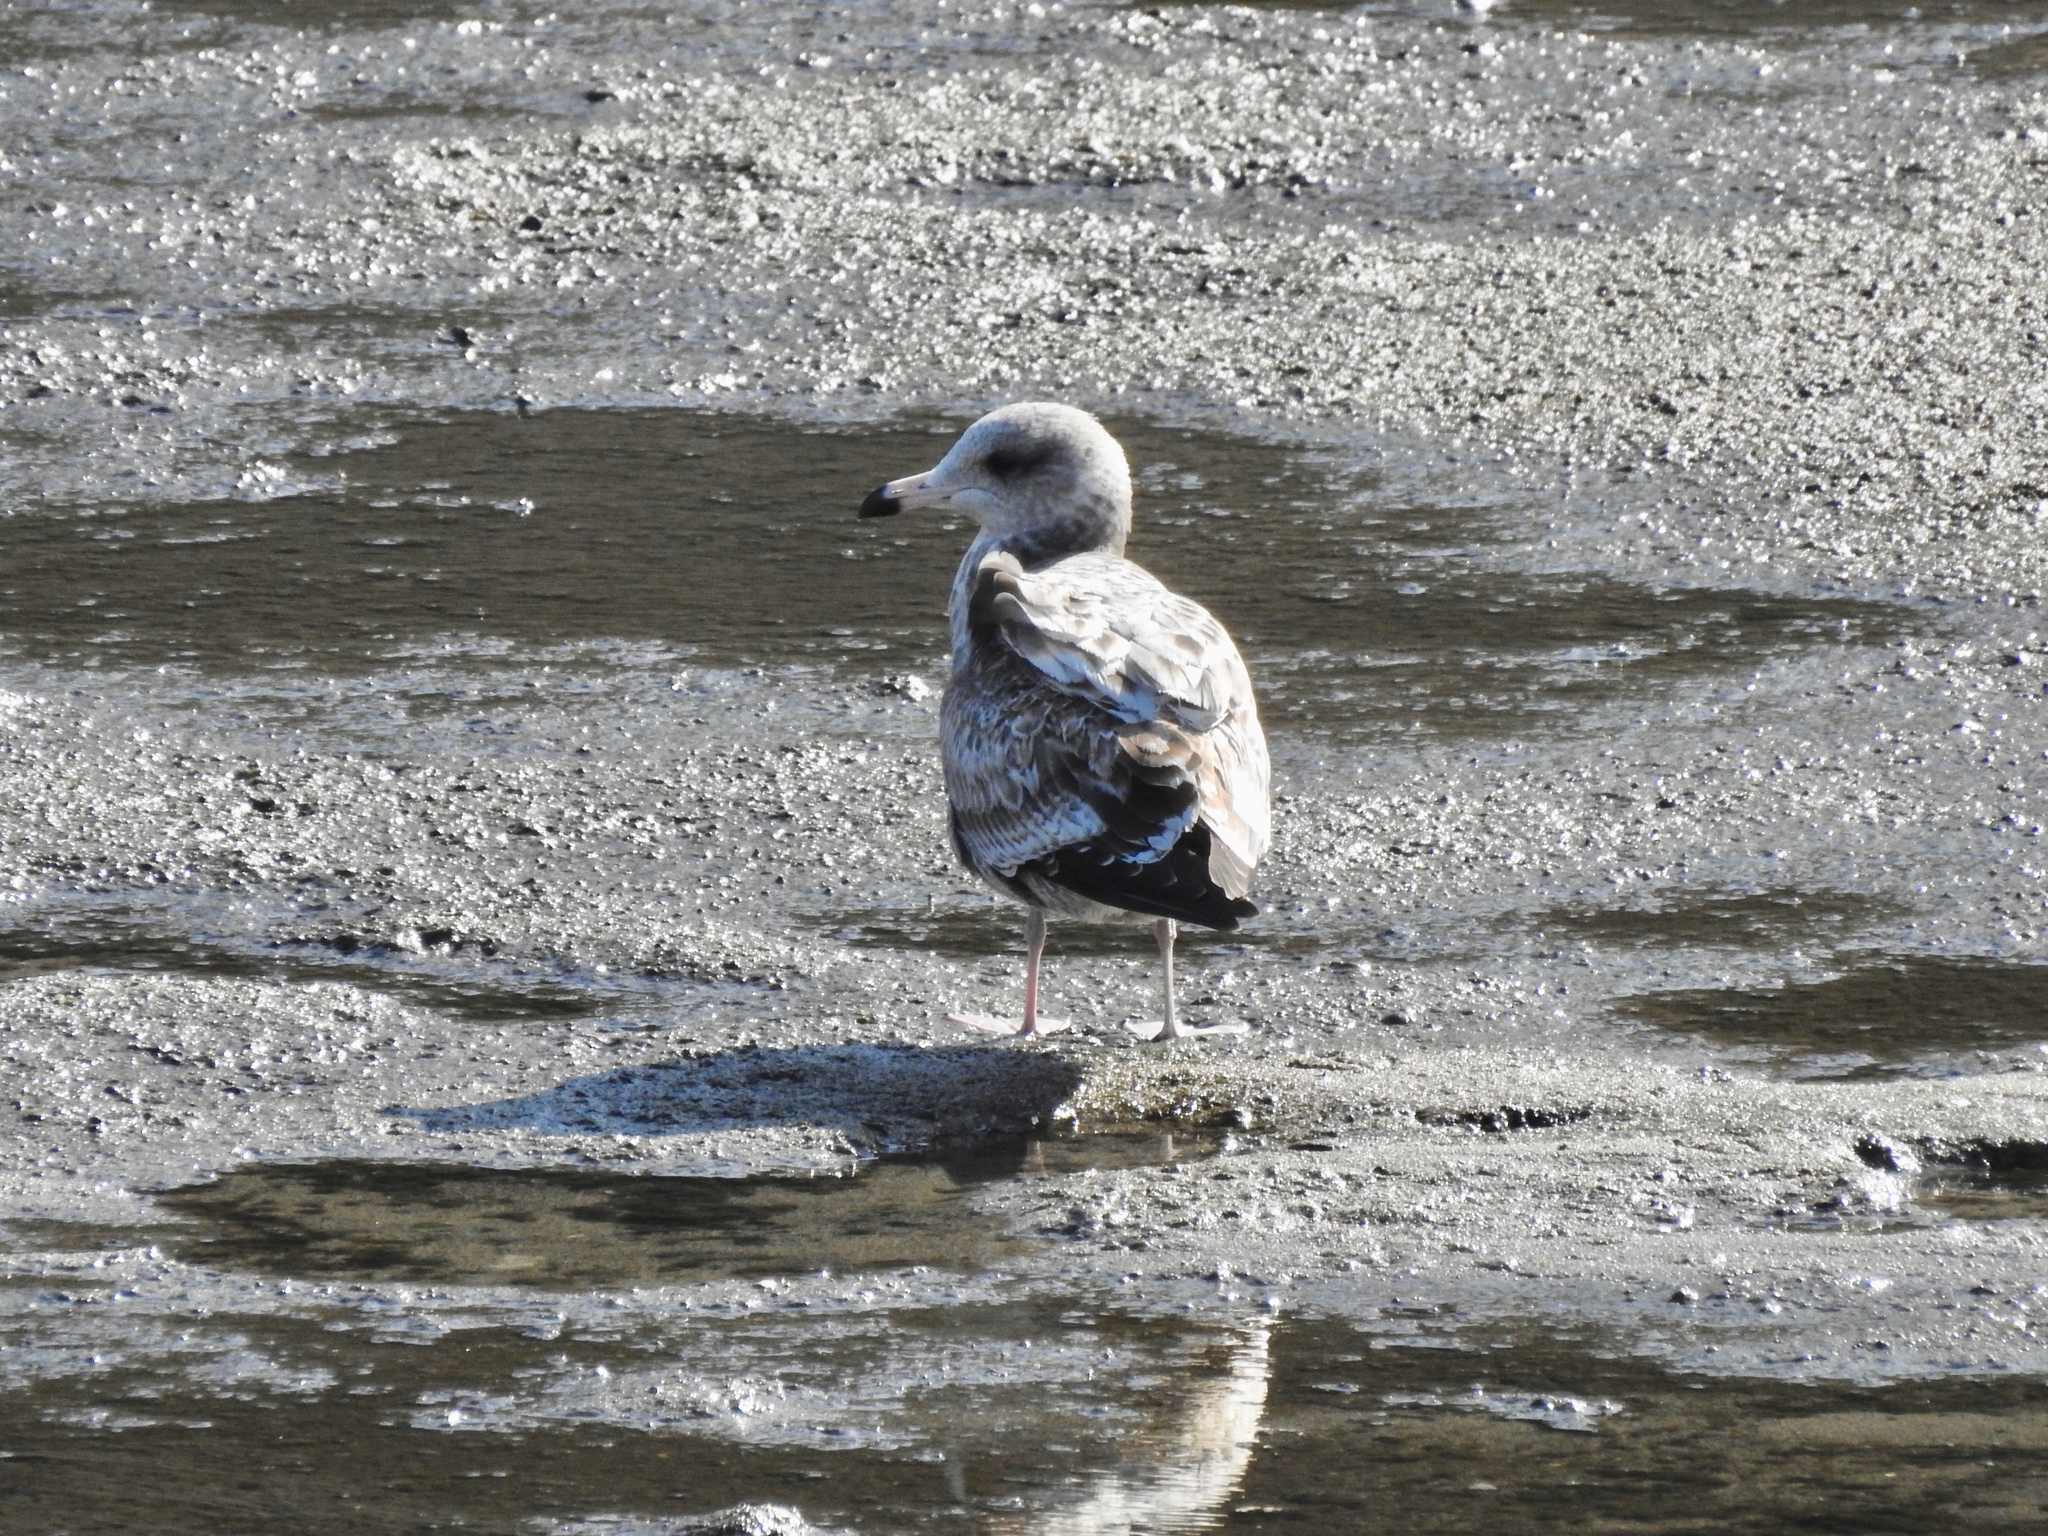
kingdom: Animalia
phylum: Chordata
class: Aves
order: Charadriiformes
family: Laridae
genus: Larus
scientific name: Larus californicus
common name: California gull
